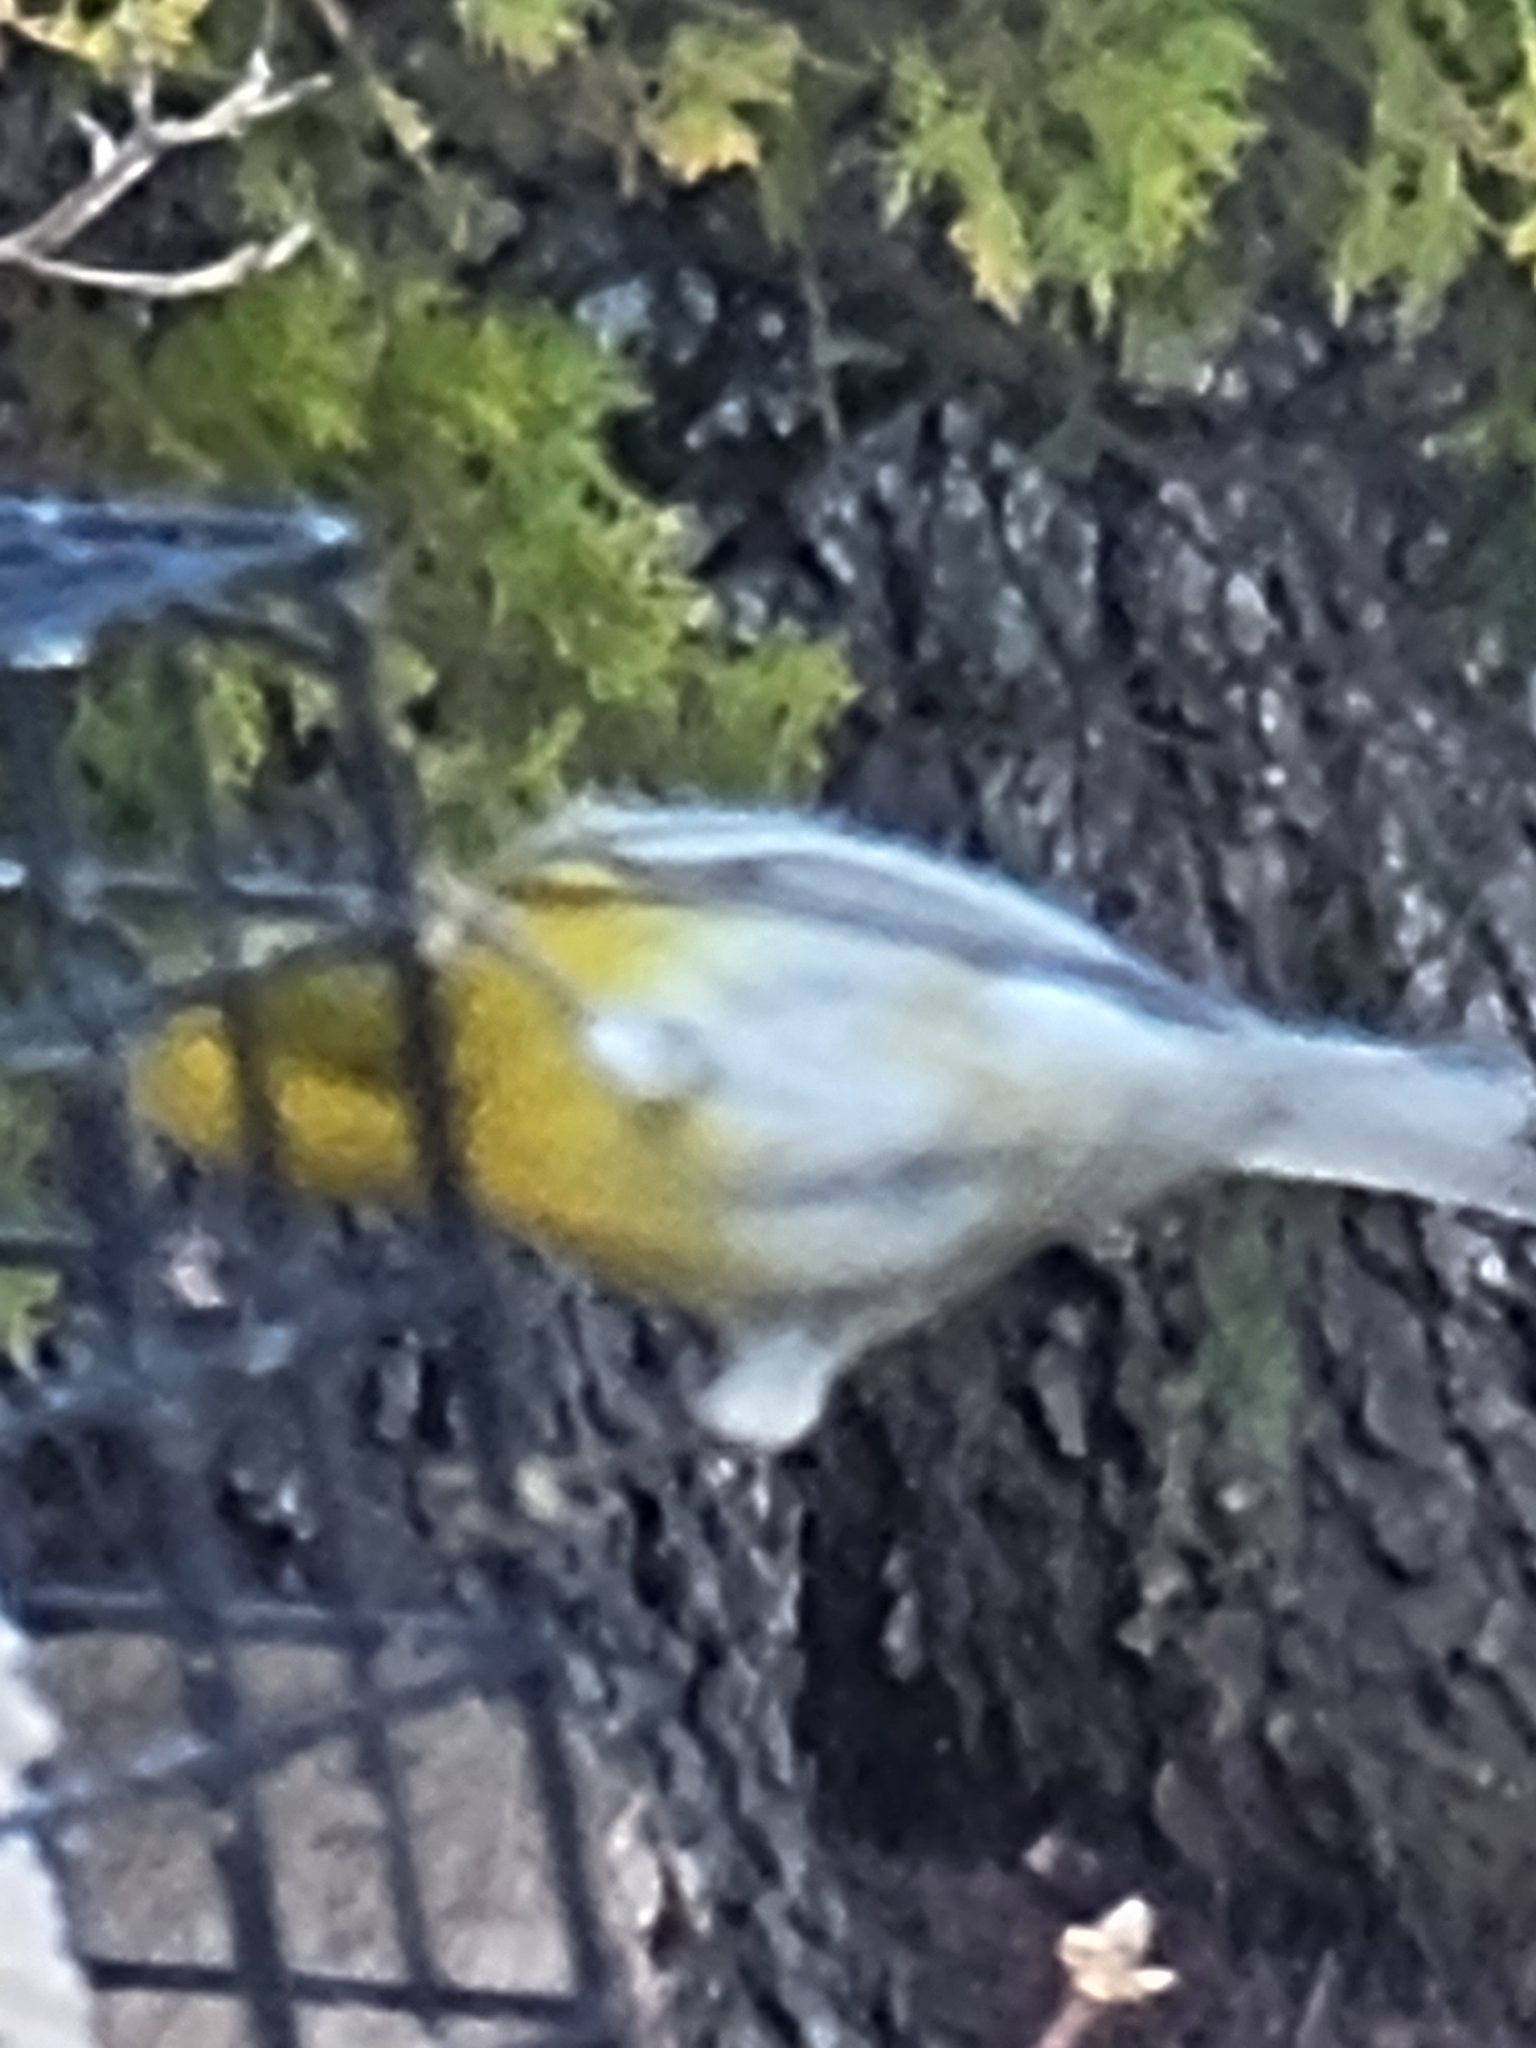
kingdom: Animalia
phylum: Chordata
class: Aves
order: Passeriformes
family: Parulidae
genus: Setophaga
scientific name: Setophaga pinus
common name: Pine warbler
